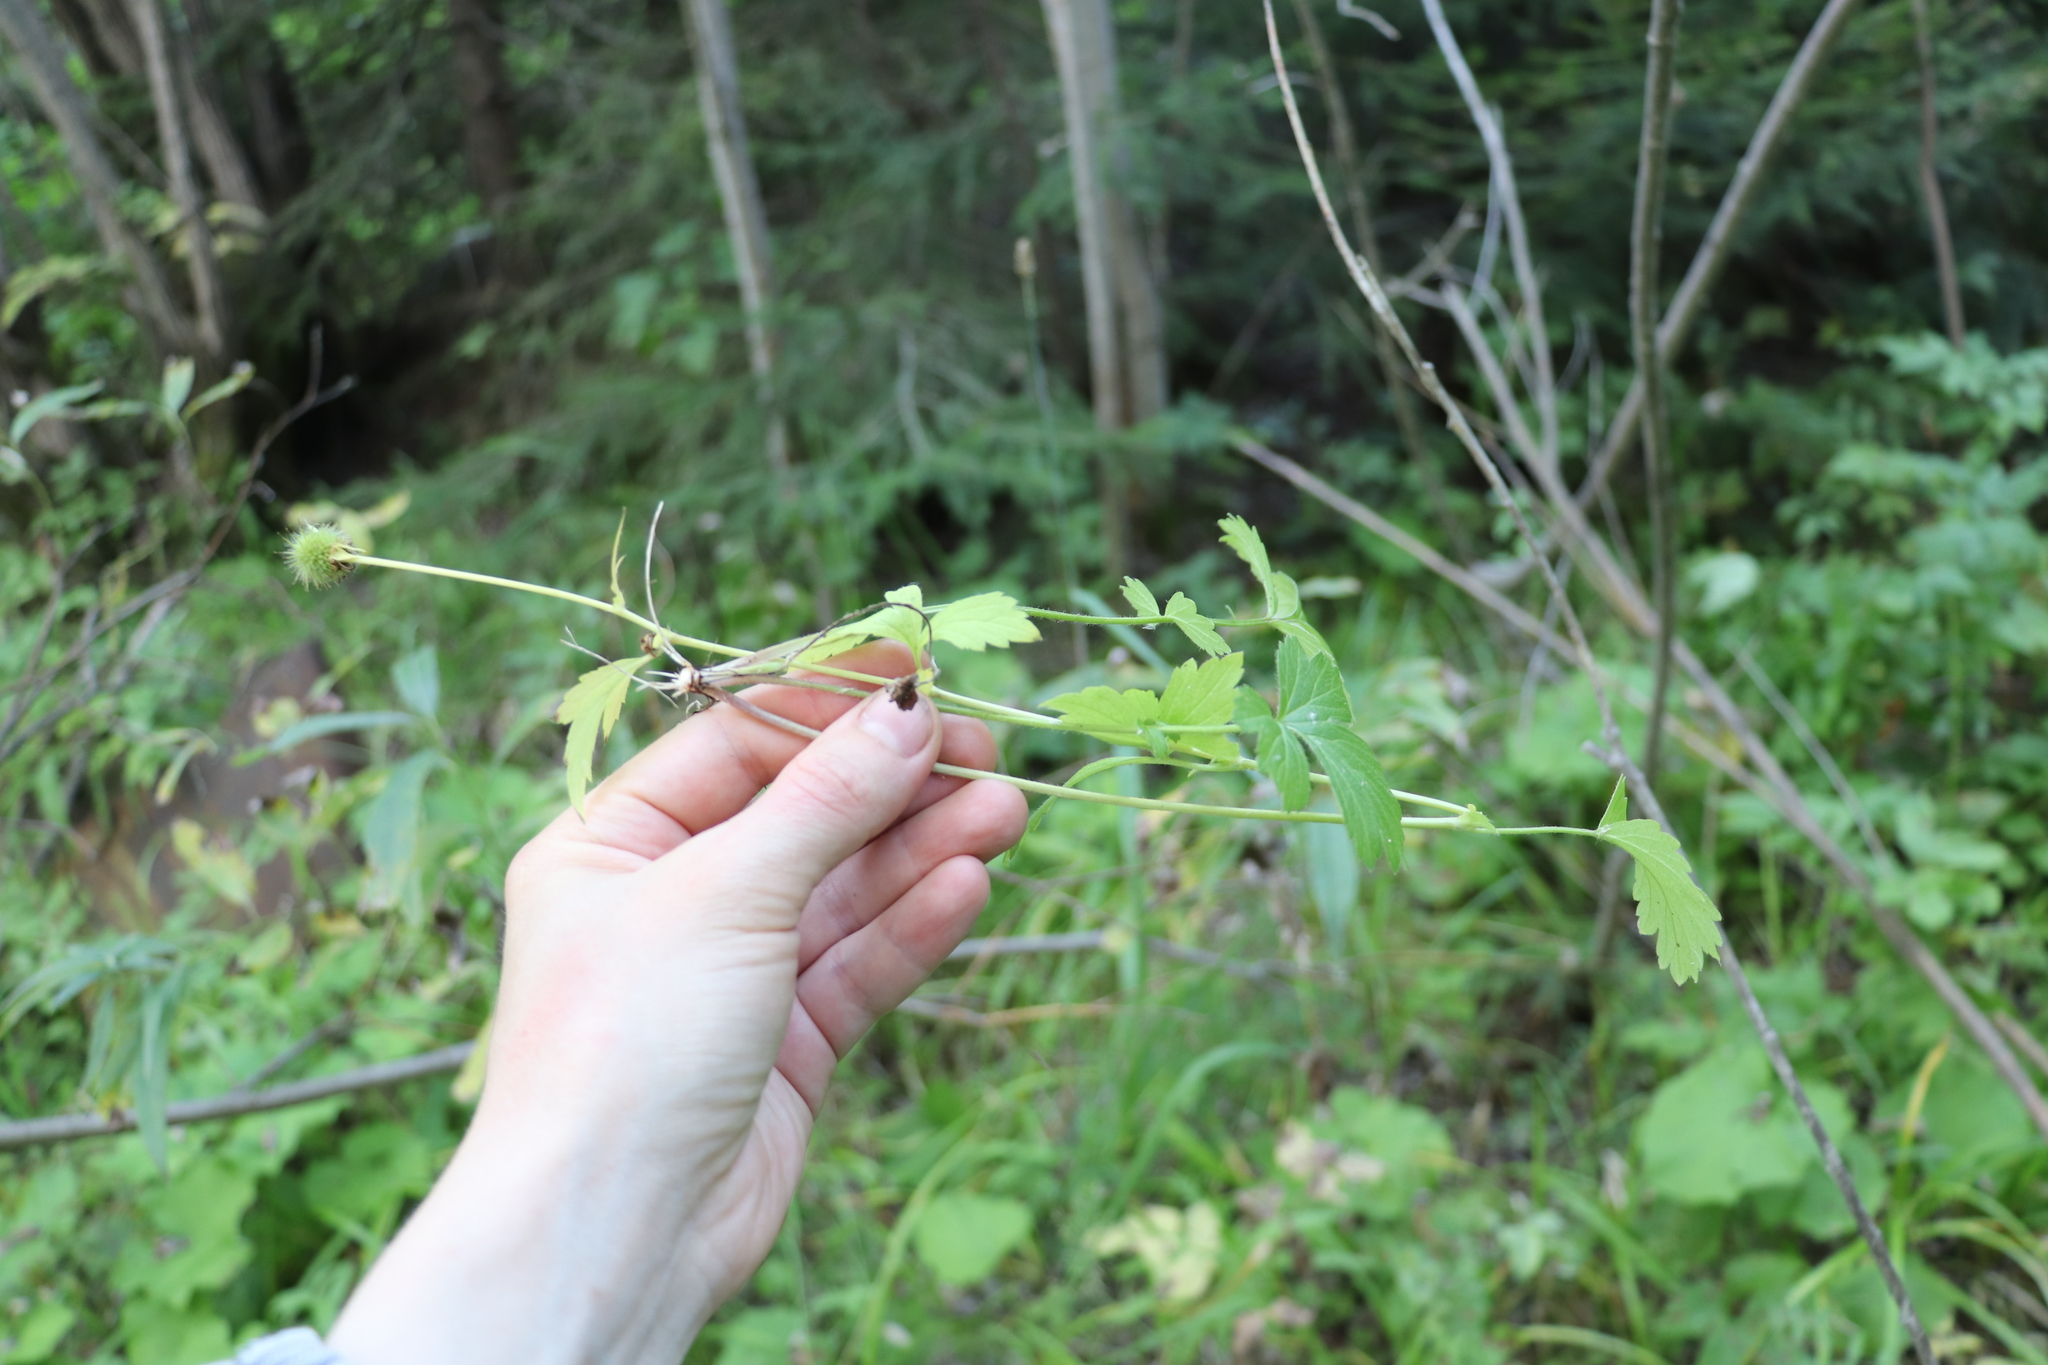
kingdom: Plantae
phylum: Tracheophyta
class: Magnoliopsida
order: Rosales
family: Rosaceae
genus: Geum
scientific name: Geum aleppicum
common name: Yellow avens
